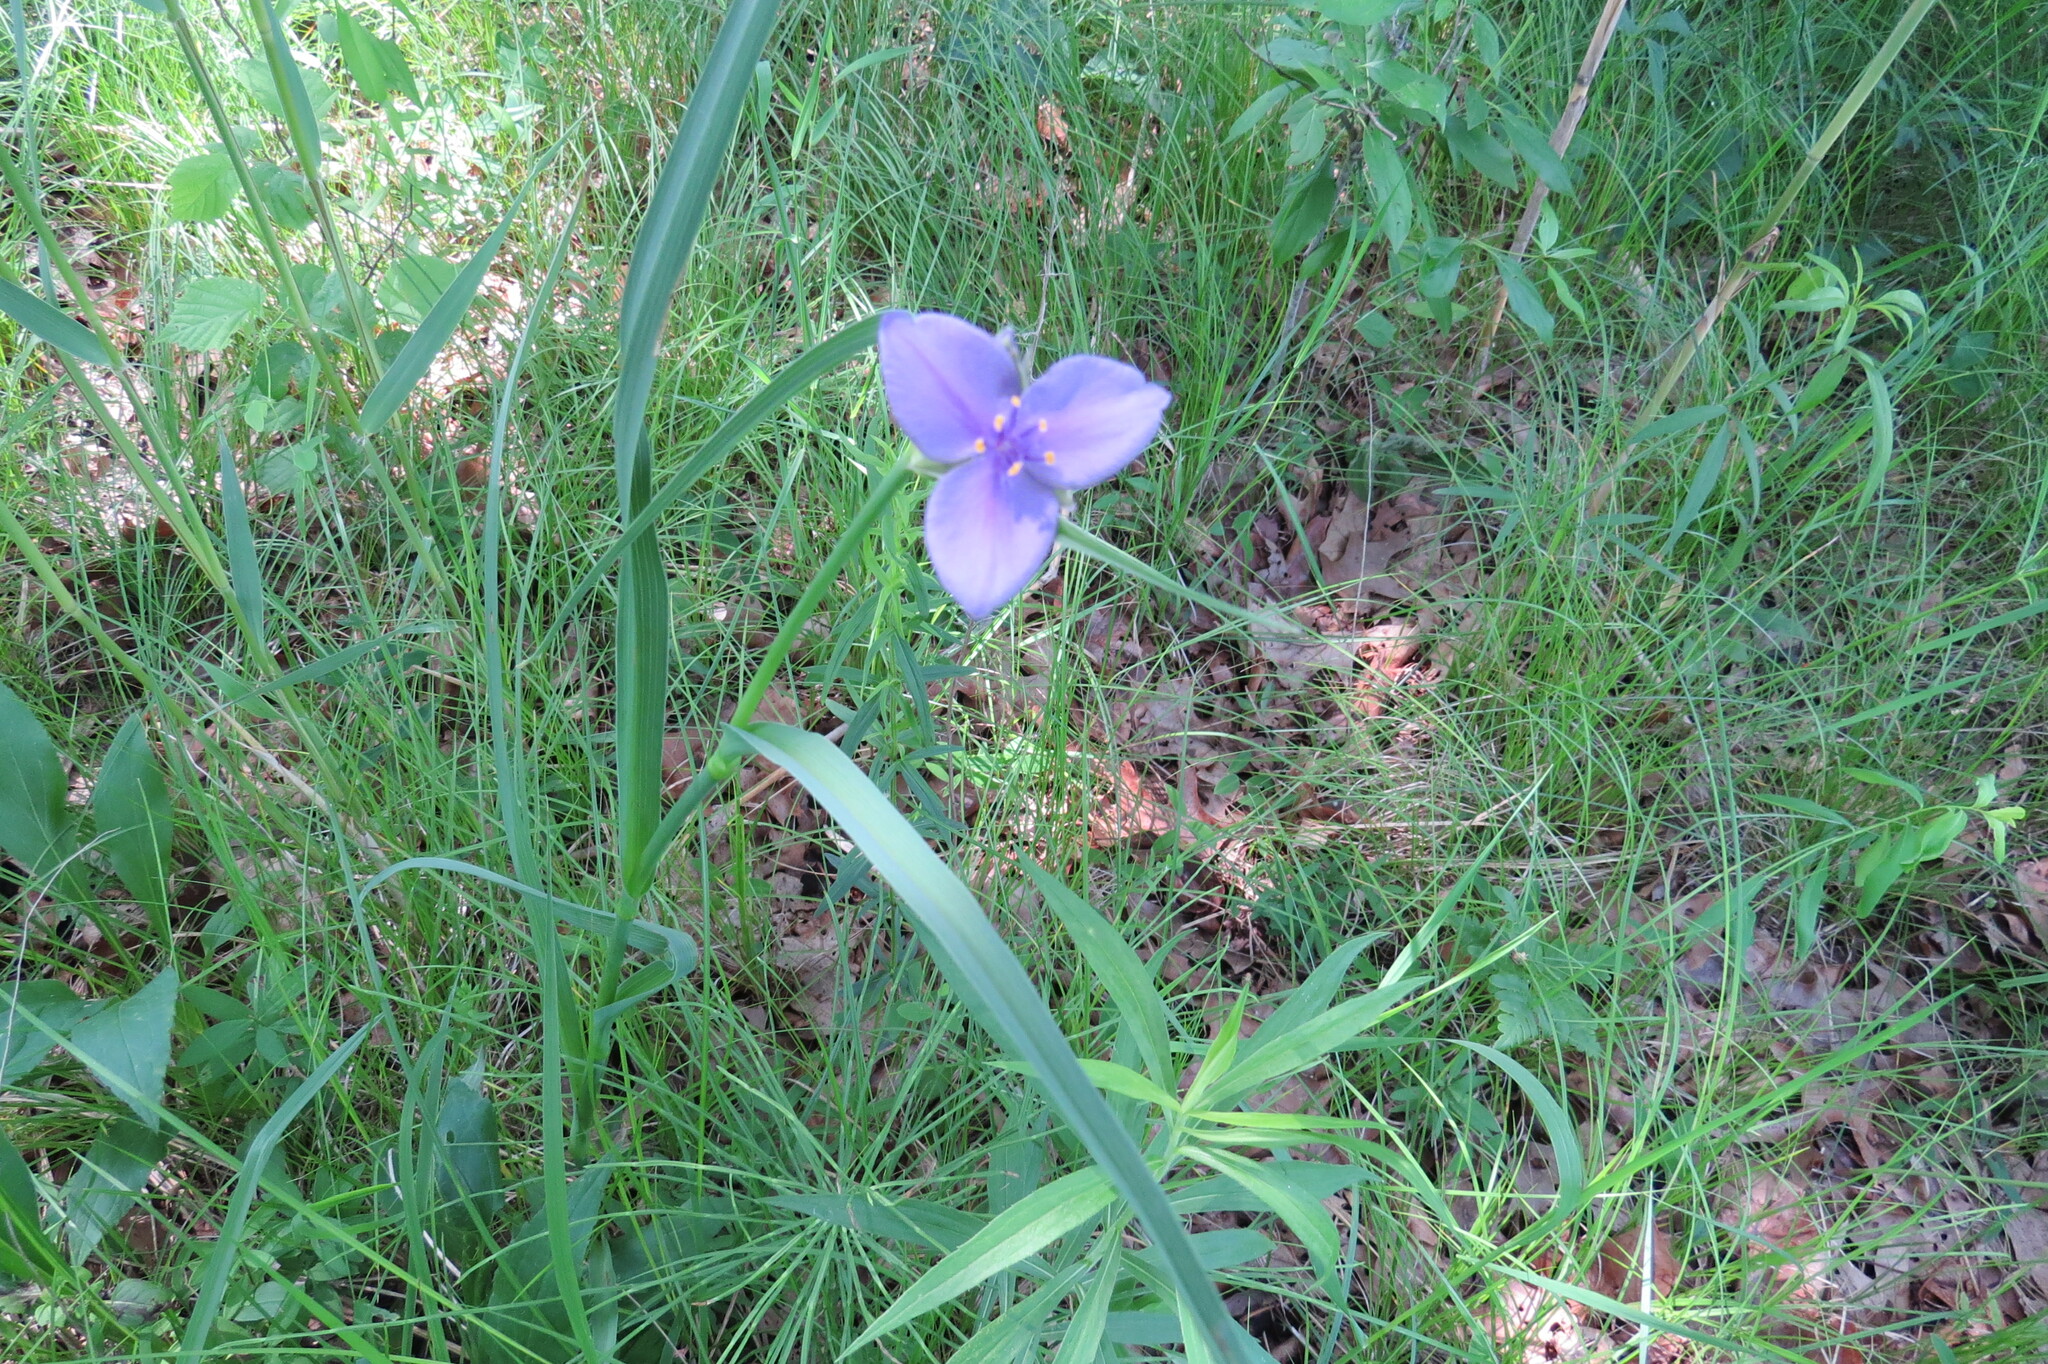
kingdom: Plantae
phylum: Tracheophyta
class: Liliopsida
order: Commelinales
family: Commelinaceae
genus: Tradescantia
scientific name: Tradescantia ohiensis
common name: Ohio spiderwort
